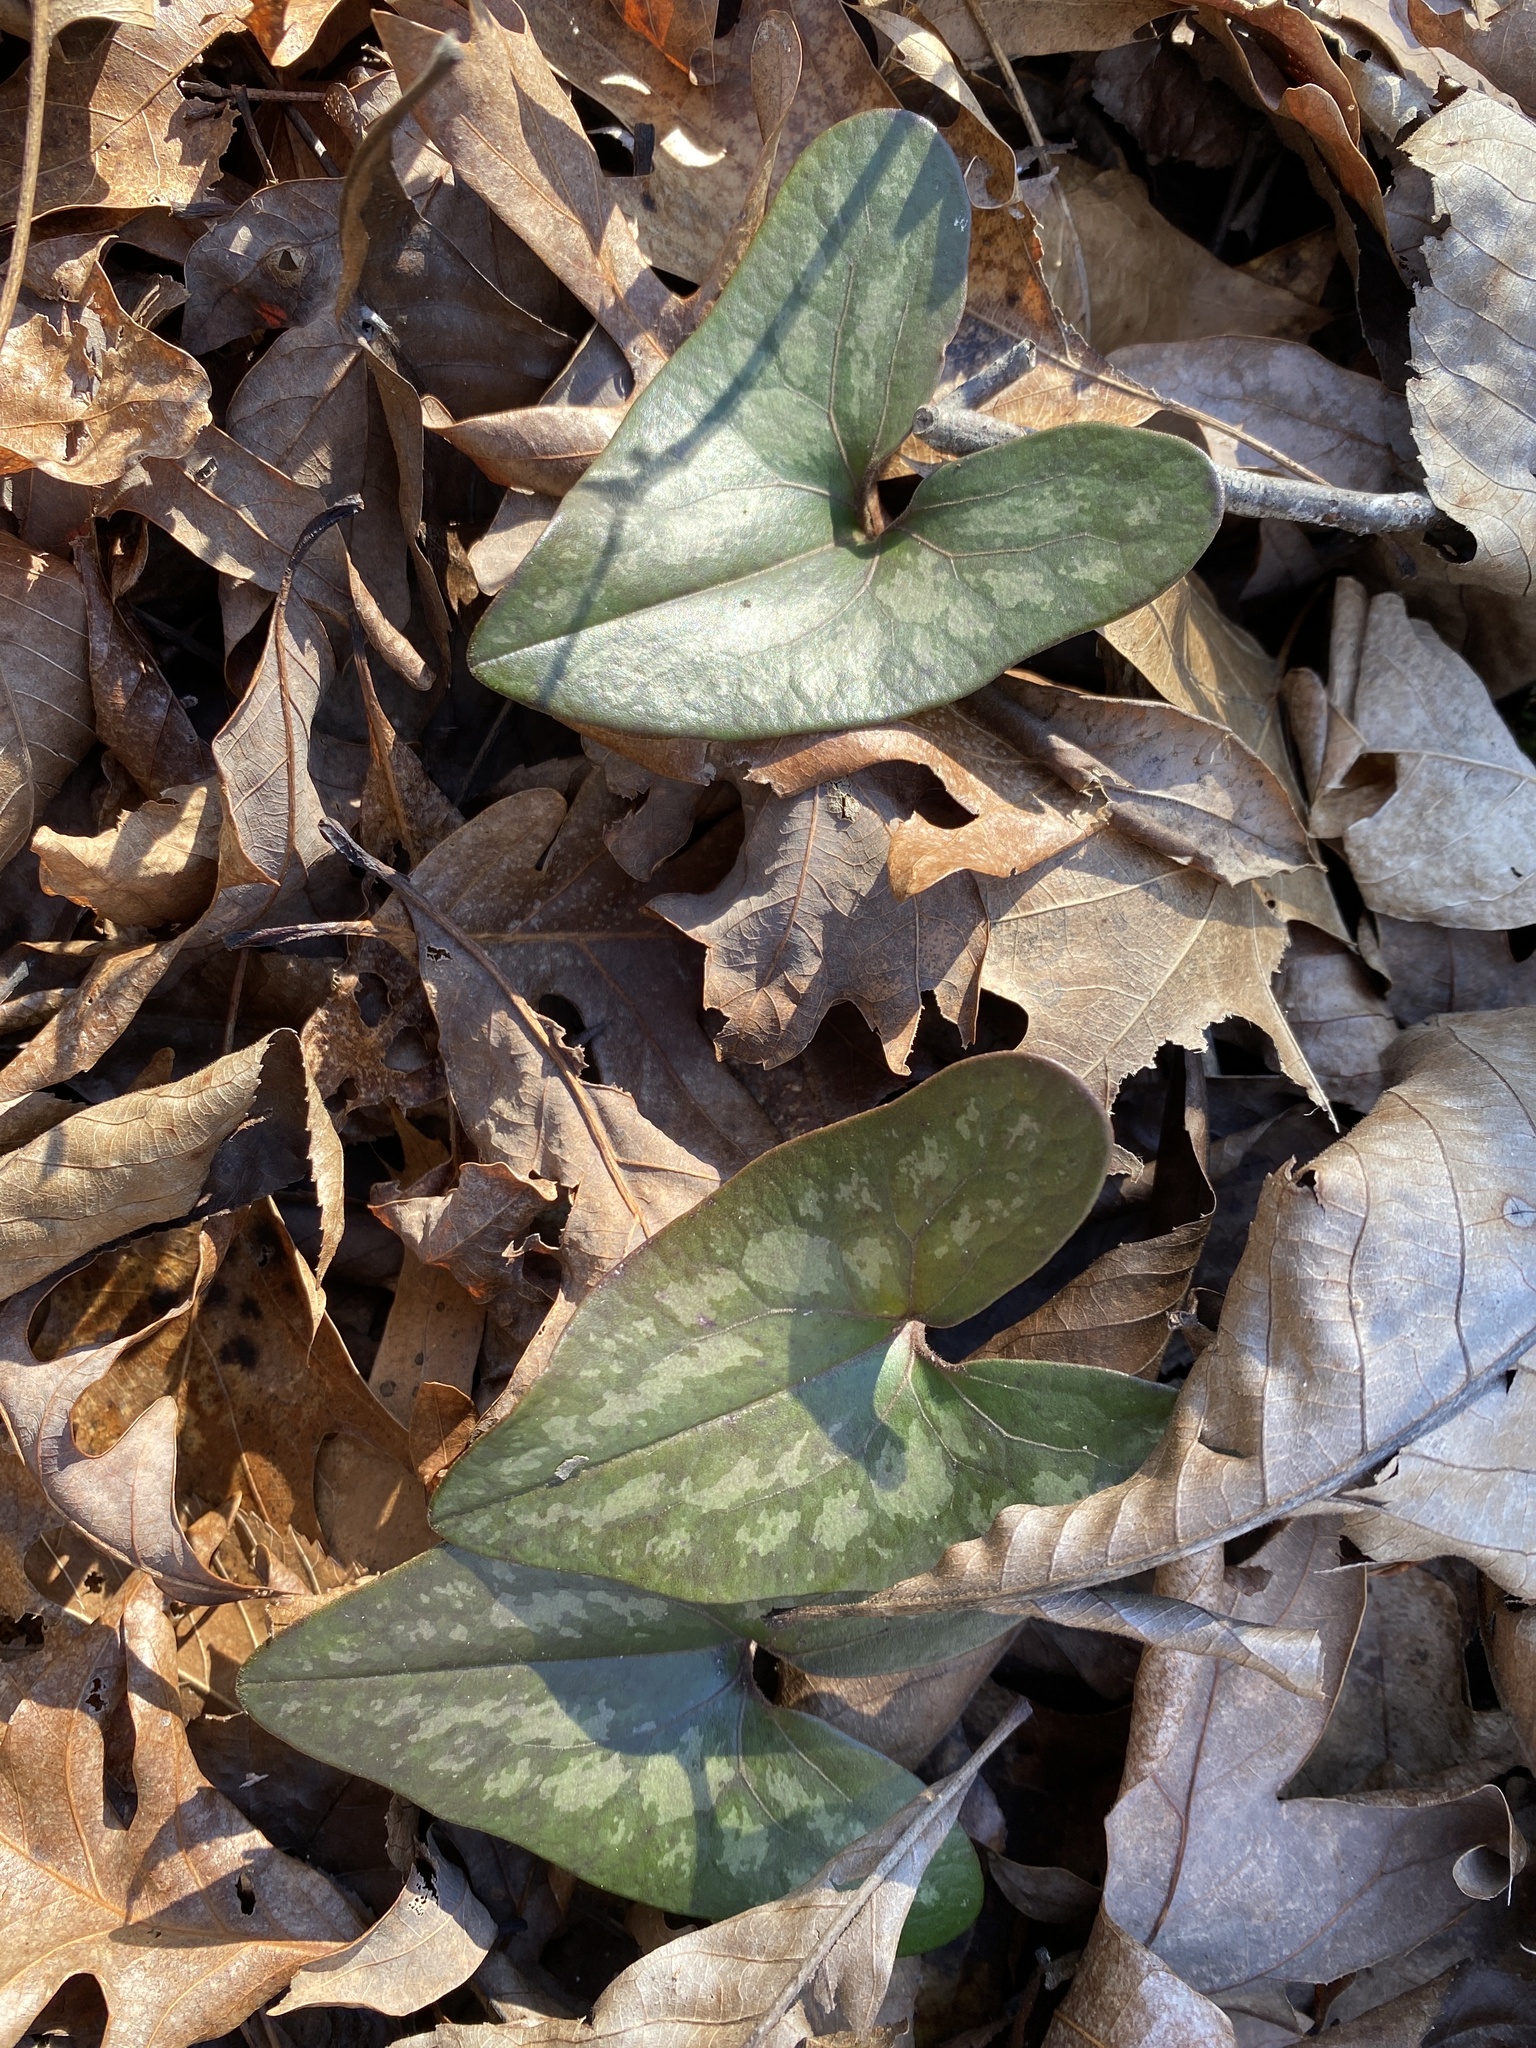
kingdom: Plantae
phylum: Tracheophyta
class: Magnoliopsida
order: Piperales
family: Aristolochiaceae
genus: Hexastylis
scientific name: Hexastylis arifolia
